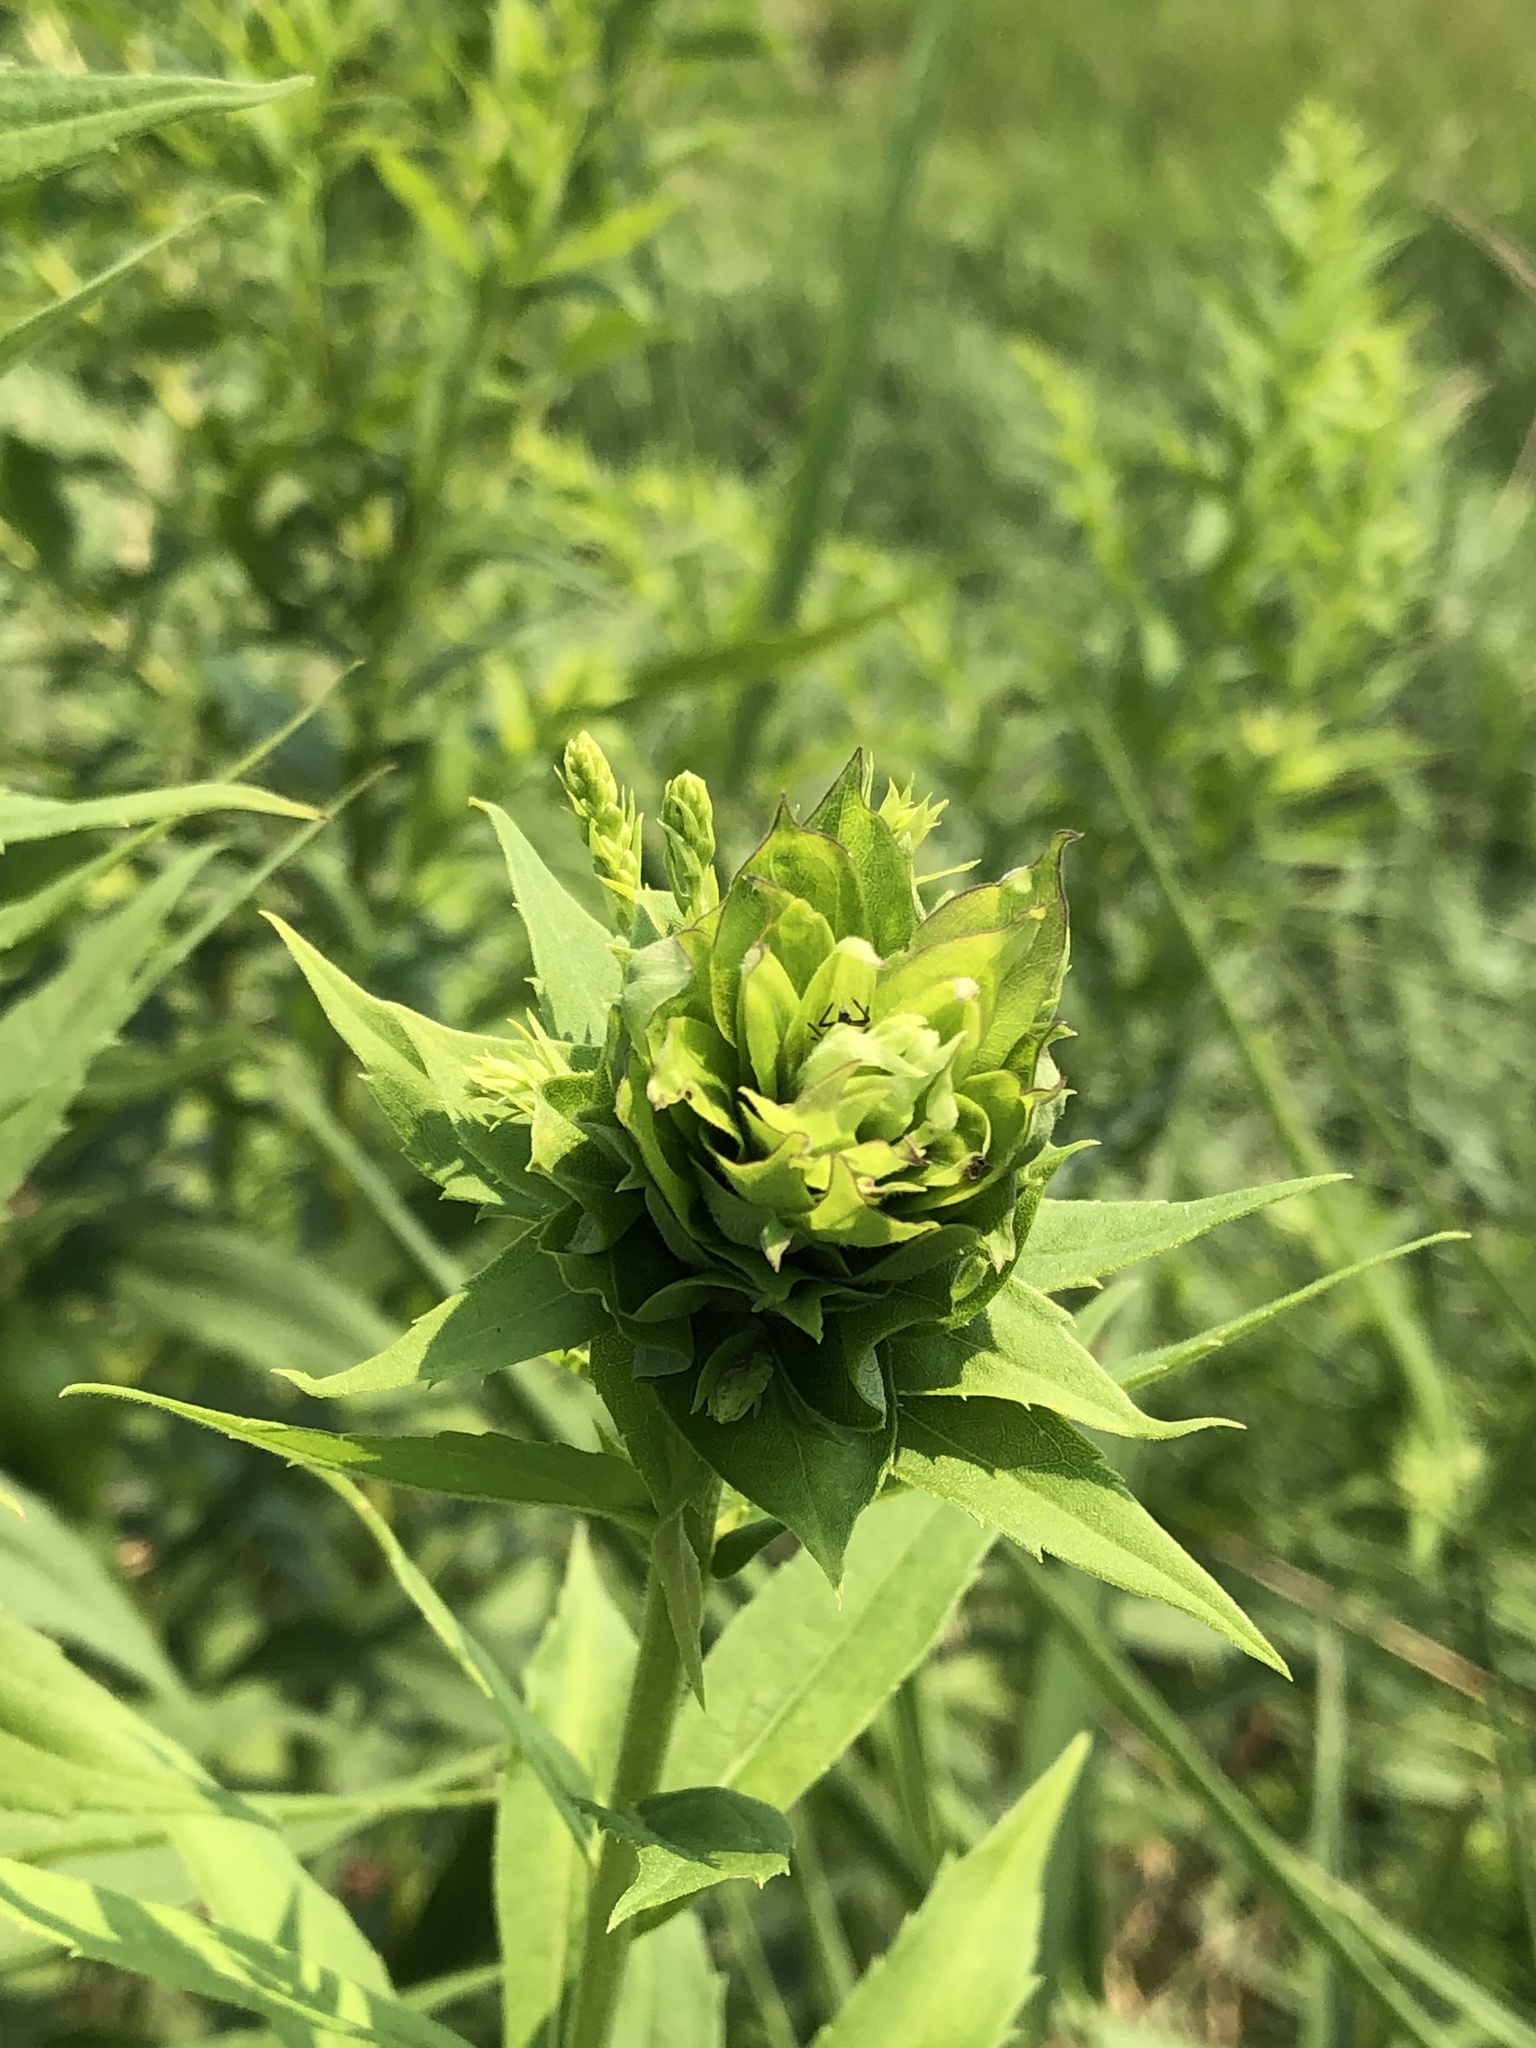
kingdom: Animalia
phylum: Arthropoda
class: Insecta
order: Diptera
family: Cecidomyiidae
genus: Rhopalomyia
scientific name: Rhopalomyia solidaginis
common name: Goldenrod bunch gall midge
